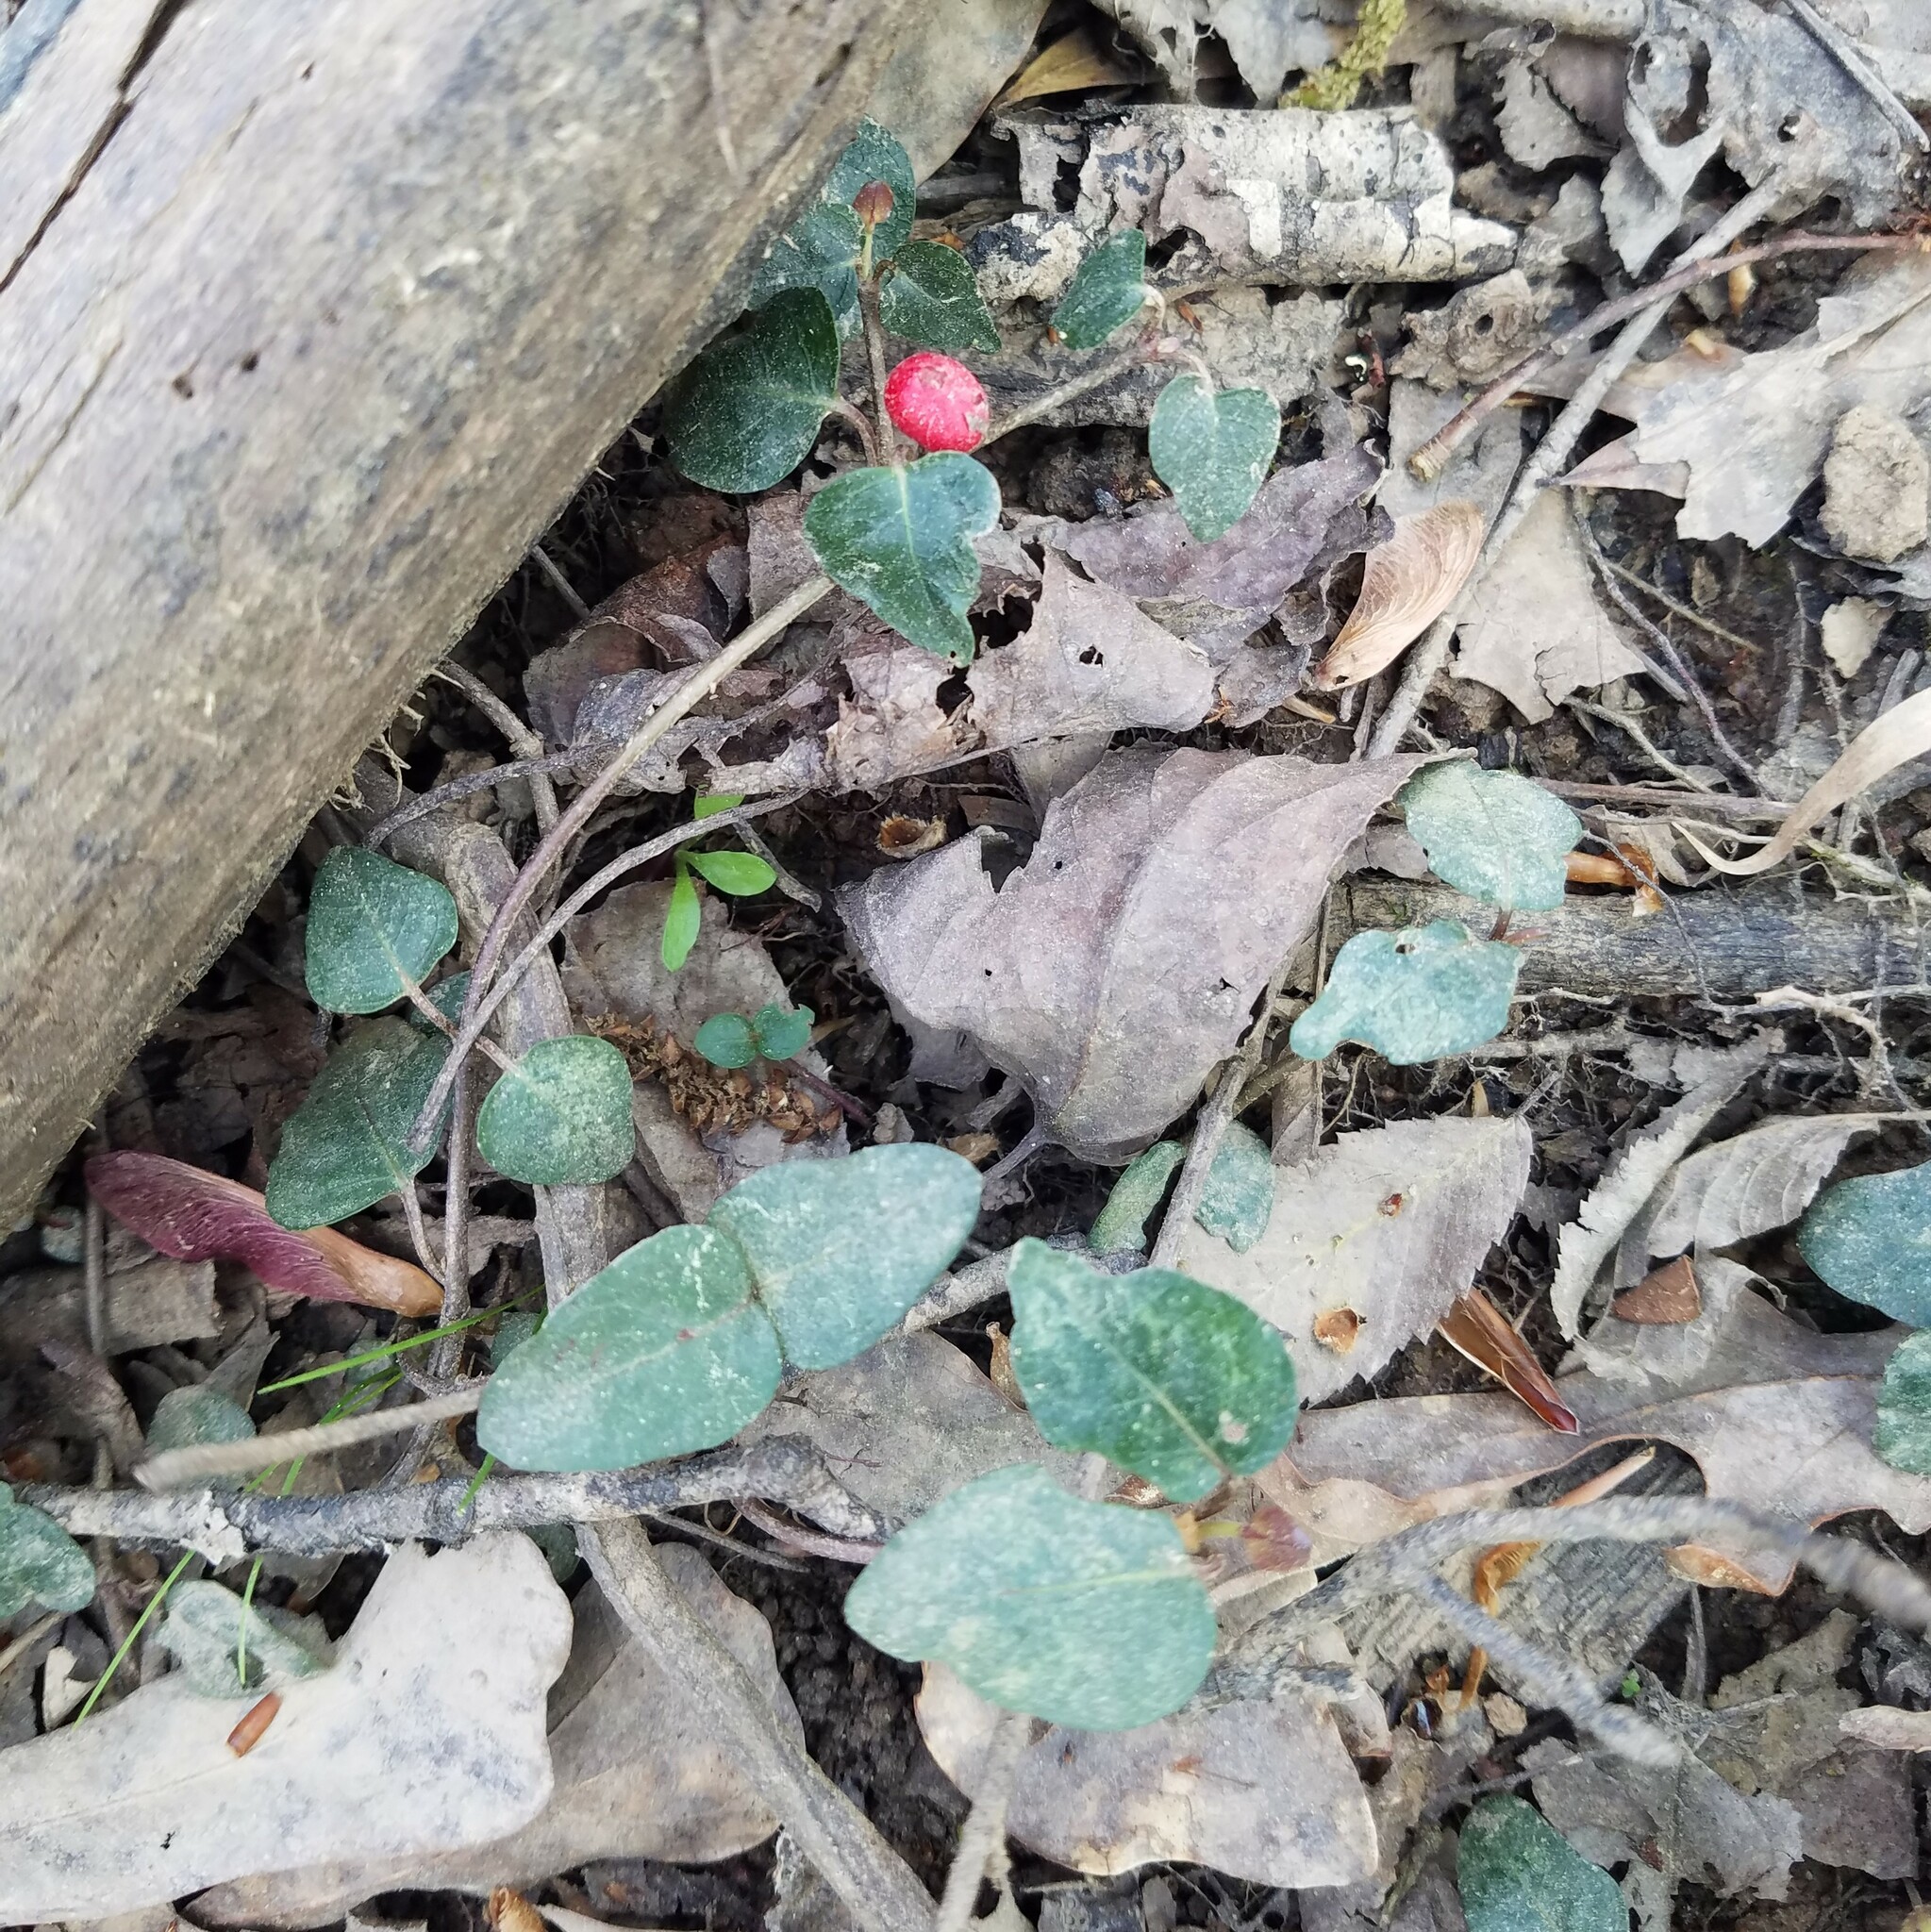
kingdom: Plantae
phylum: Tracheophyta
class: Magnoliopsida
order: Gentianales
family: Rubiaceae
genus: Mitchella
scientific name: Mitchella repens
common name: Partridge-berry
